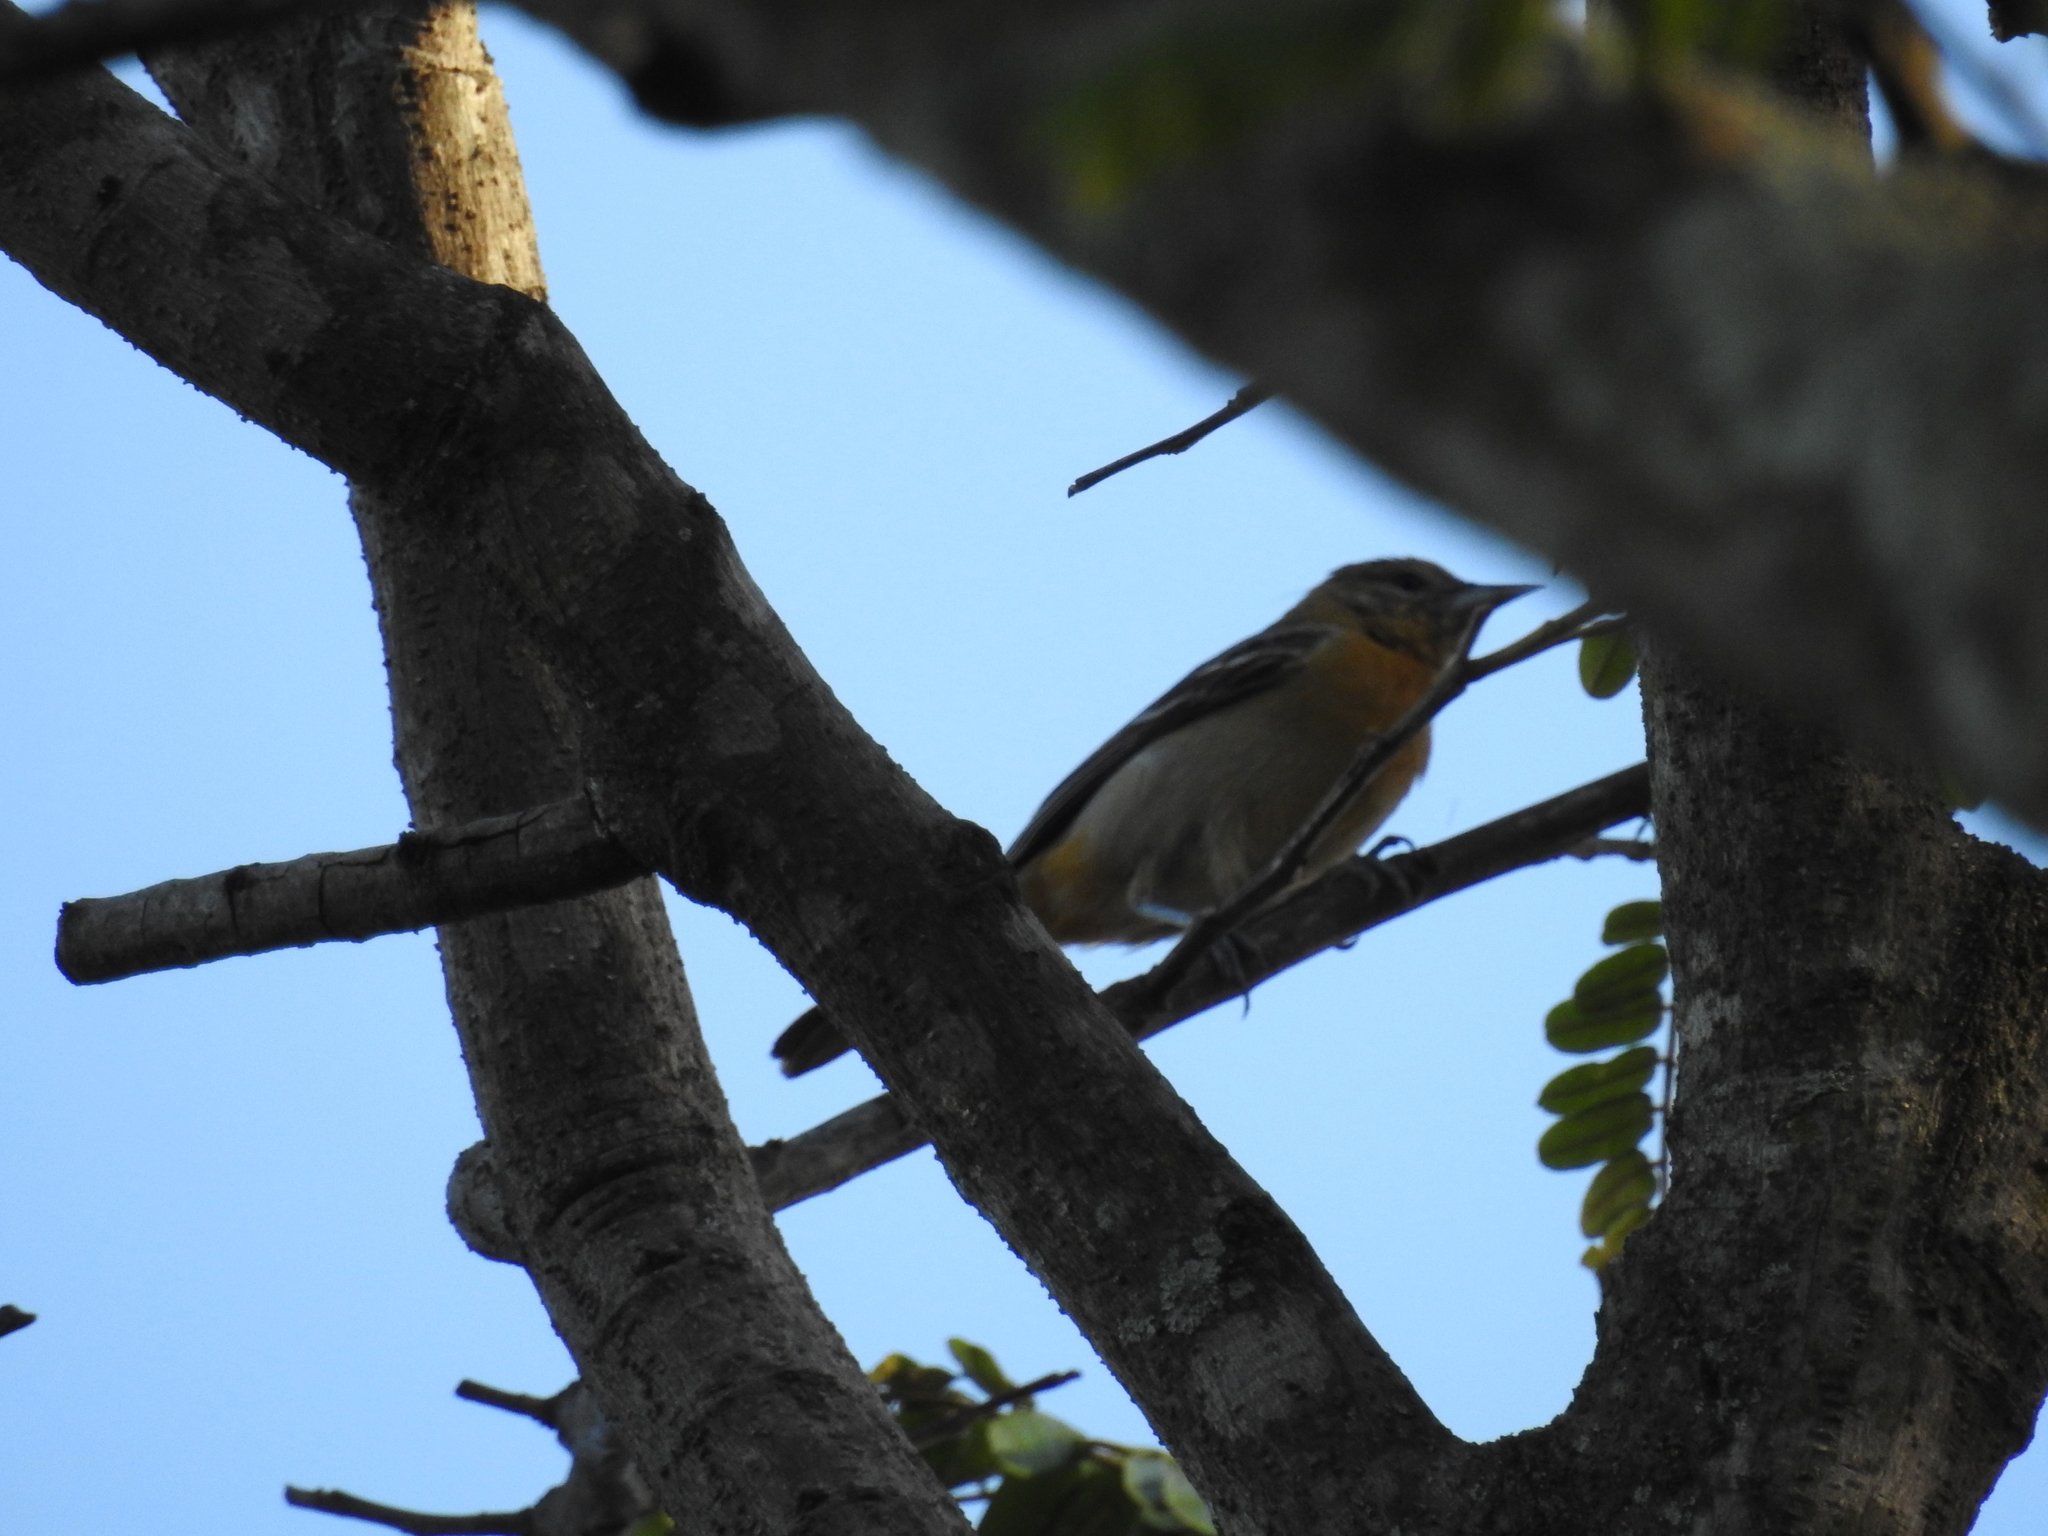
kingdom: Animalia
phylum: Chordata
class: Aves
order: Passeriformes
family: Icteridae
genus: Icterus
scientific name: Icterus galbula
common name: Baltimore oriole
